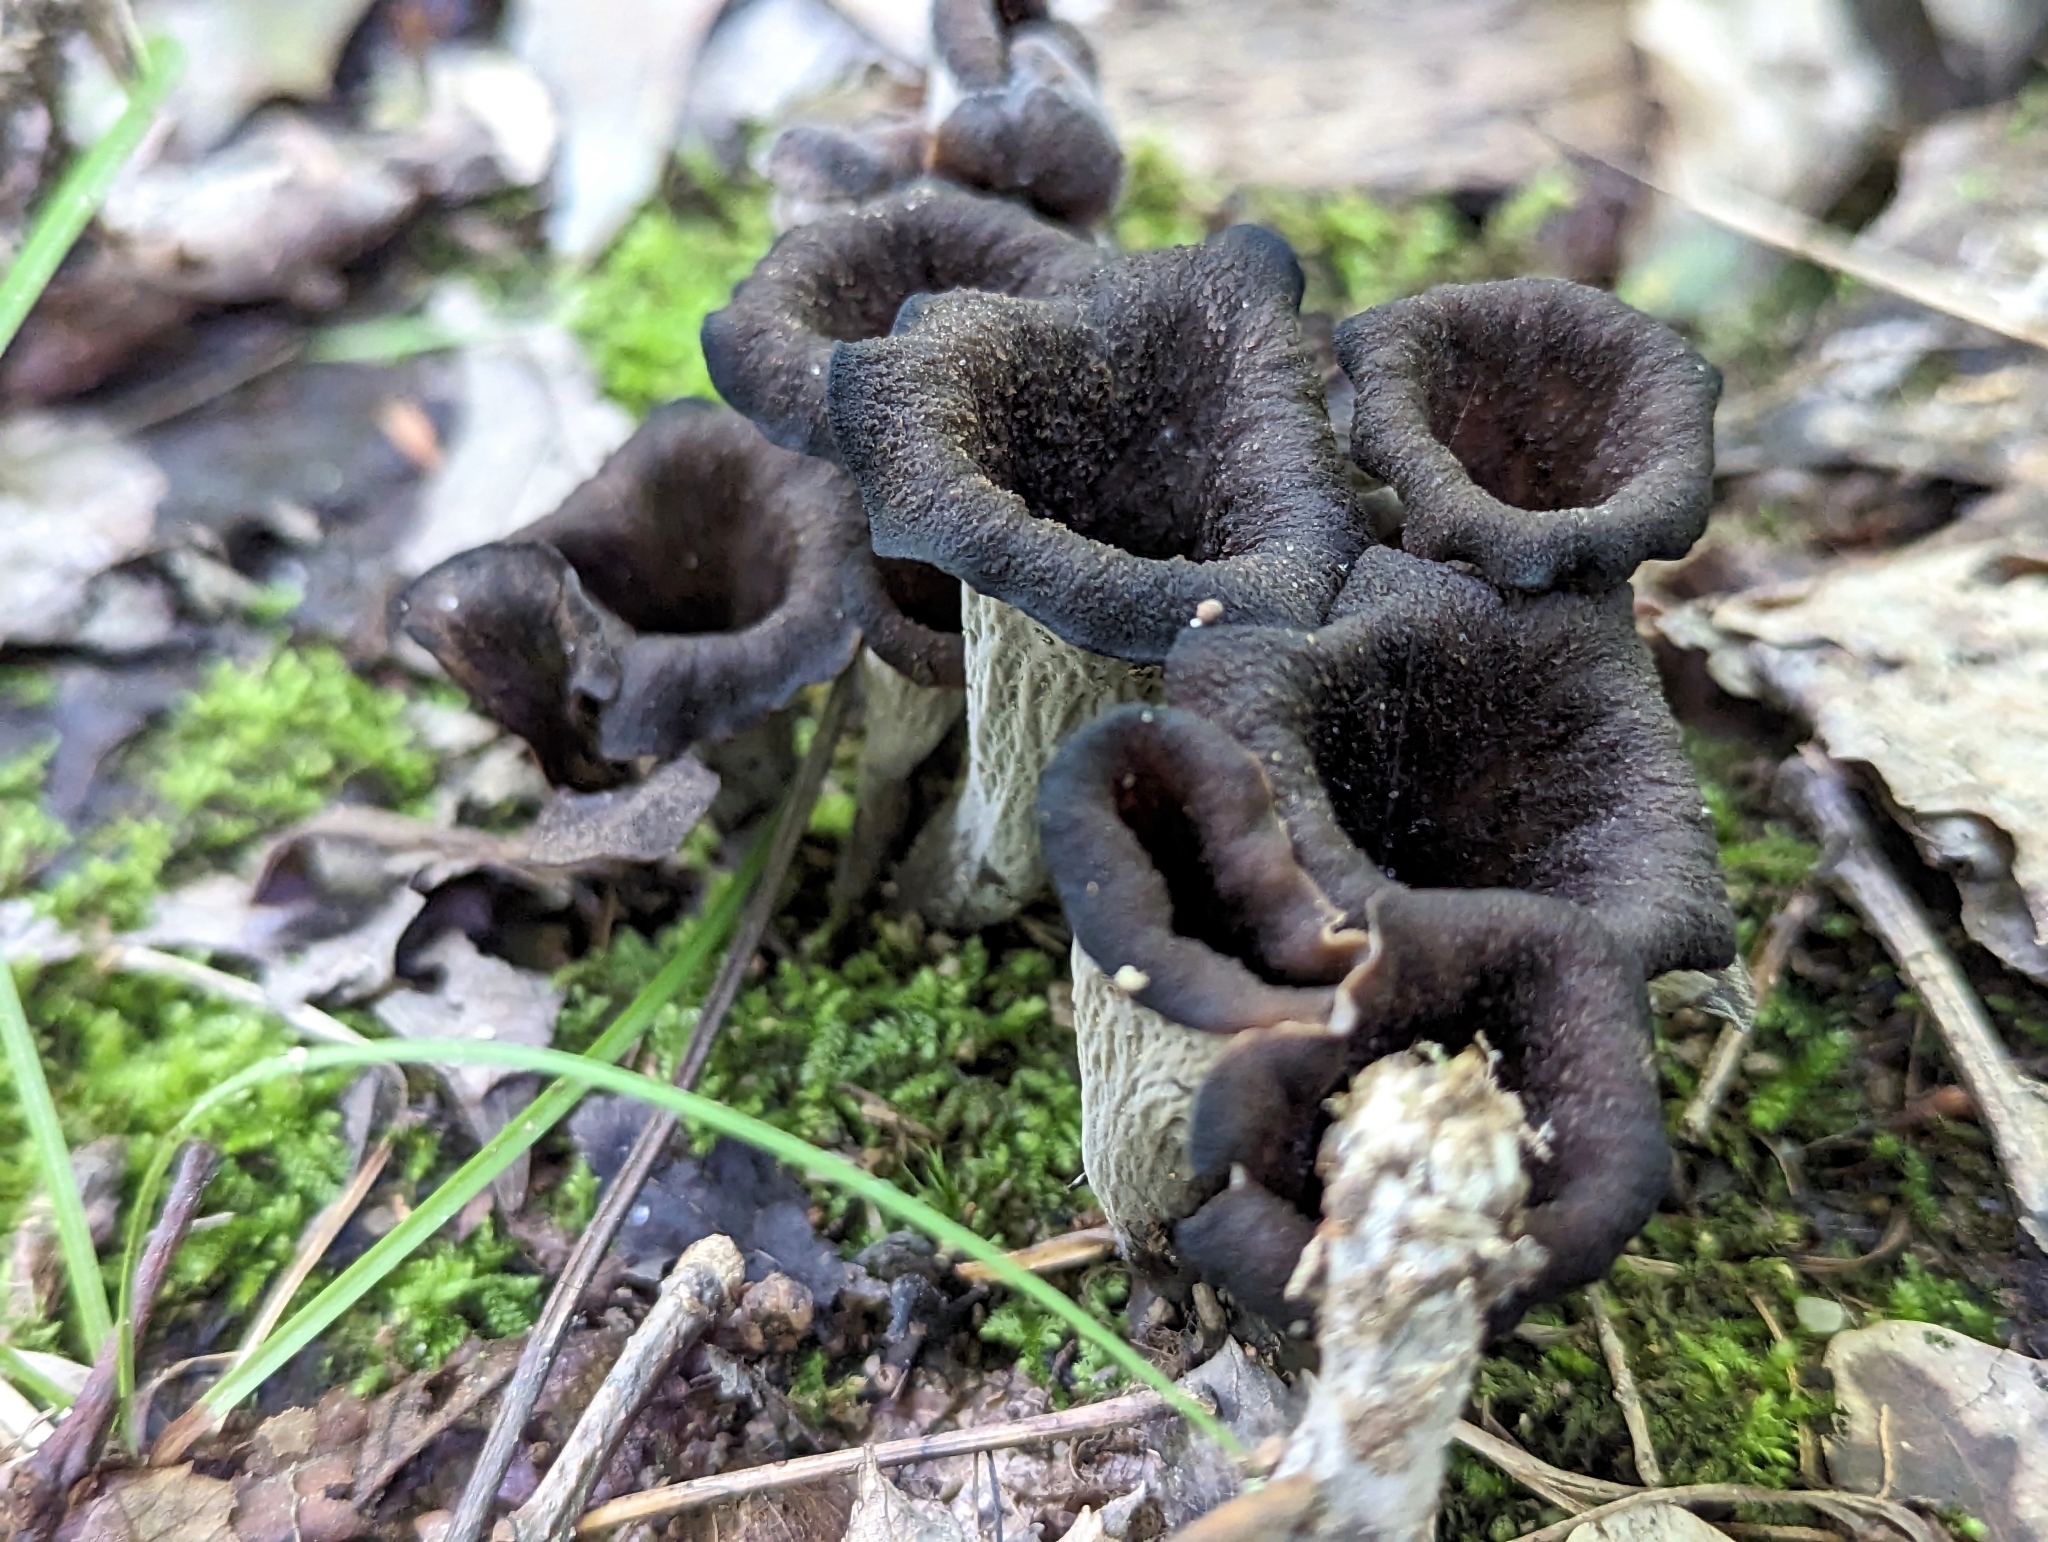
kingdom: Fungi
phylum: Basidiomycota
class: Agaricomycetes
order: Cantharellales
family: Hydnaceae
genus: Craterellus
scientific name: Craterellus cornucopioides
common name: Horn of plenty
